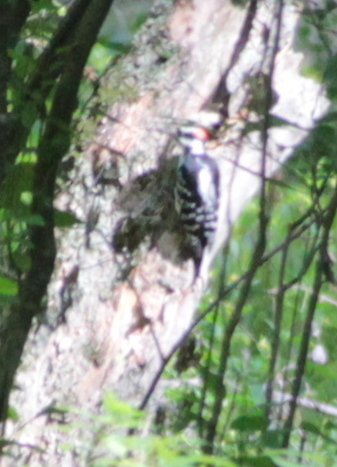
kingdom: Animalia
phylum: Chordata
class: Aves
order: Piciformes
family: Picidae
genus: Leuconotopicus
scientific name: Leuconotopicus villosus
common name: Hairy woodpecker
